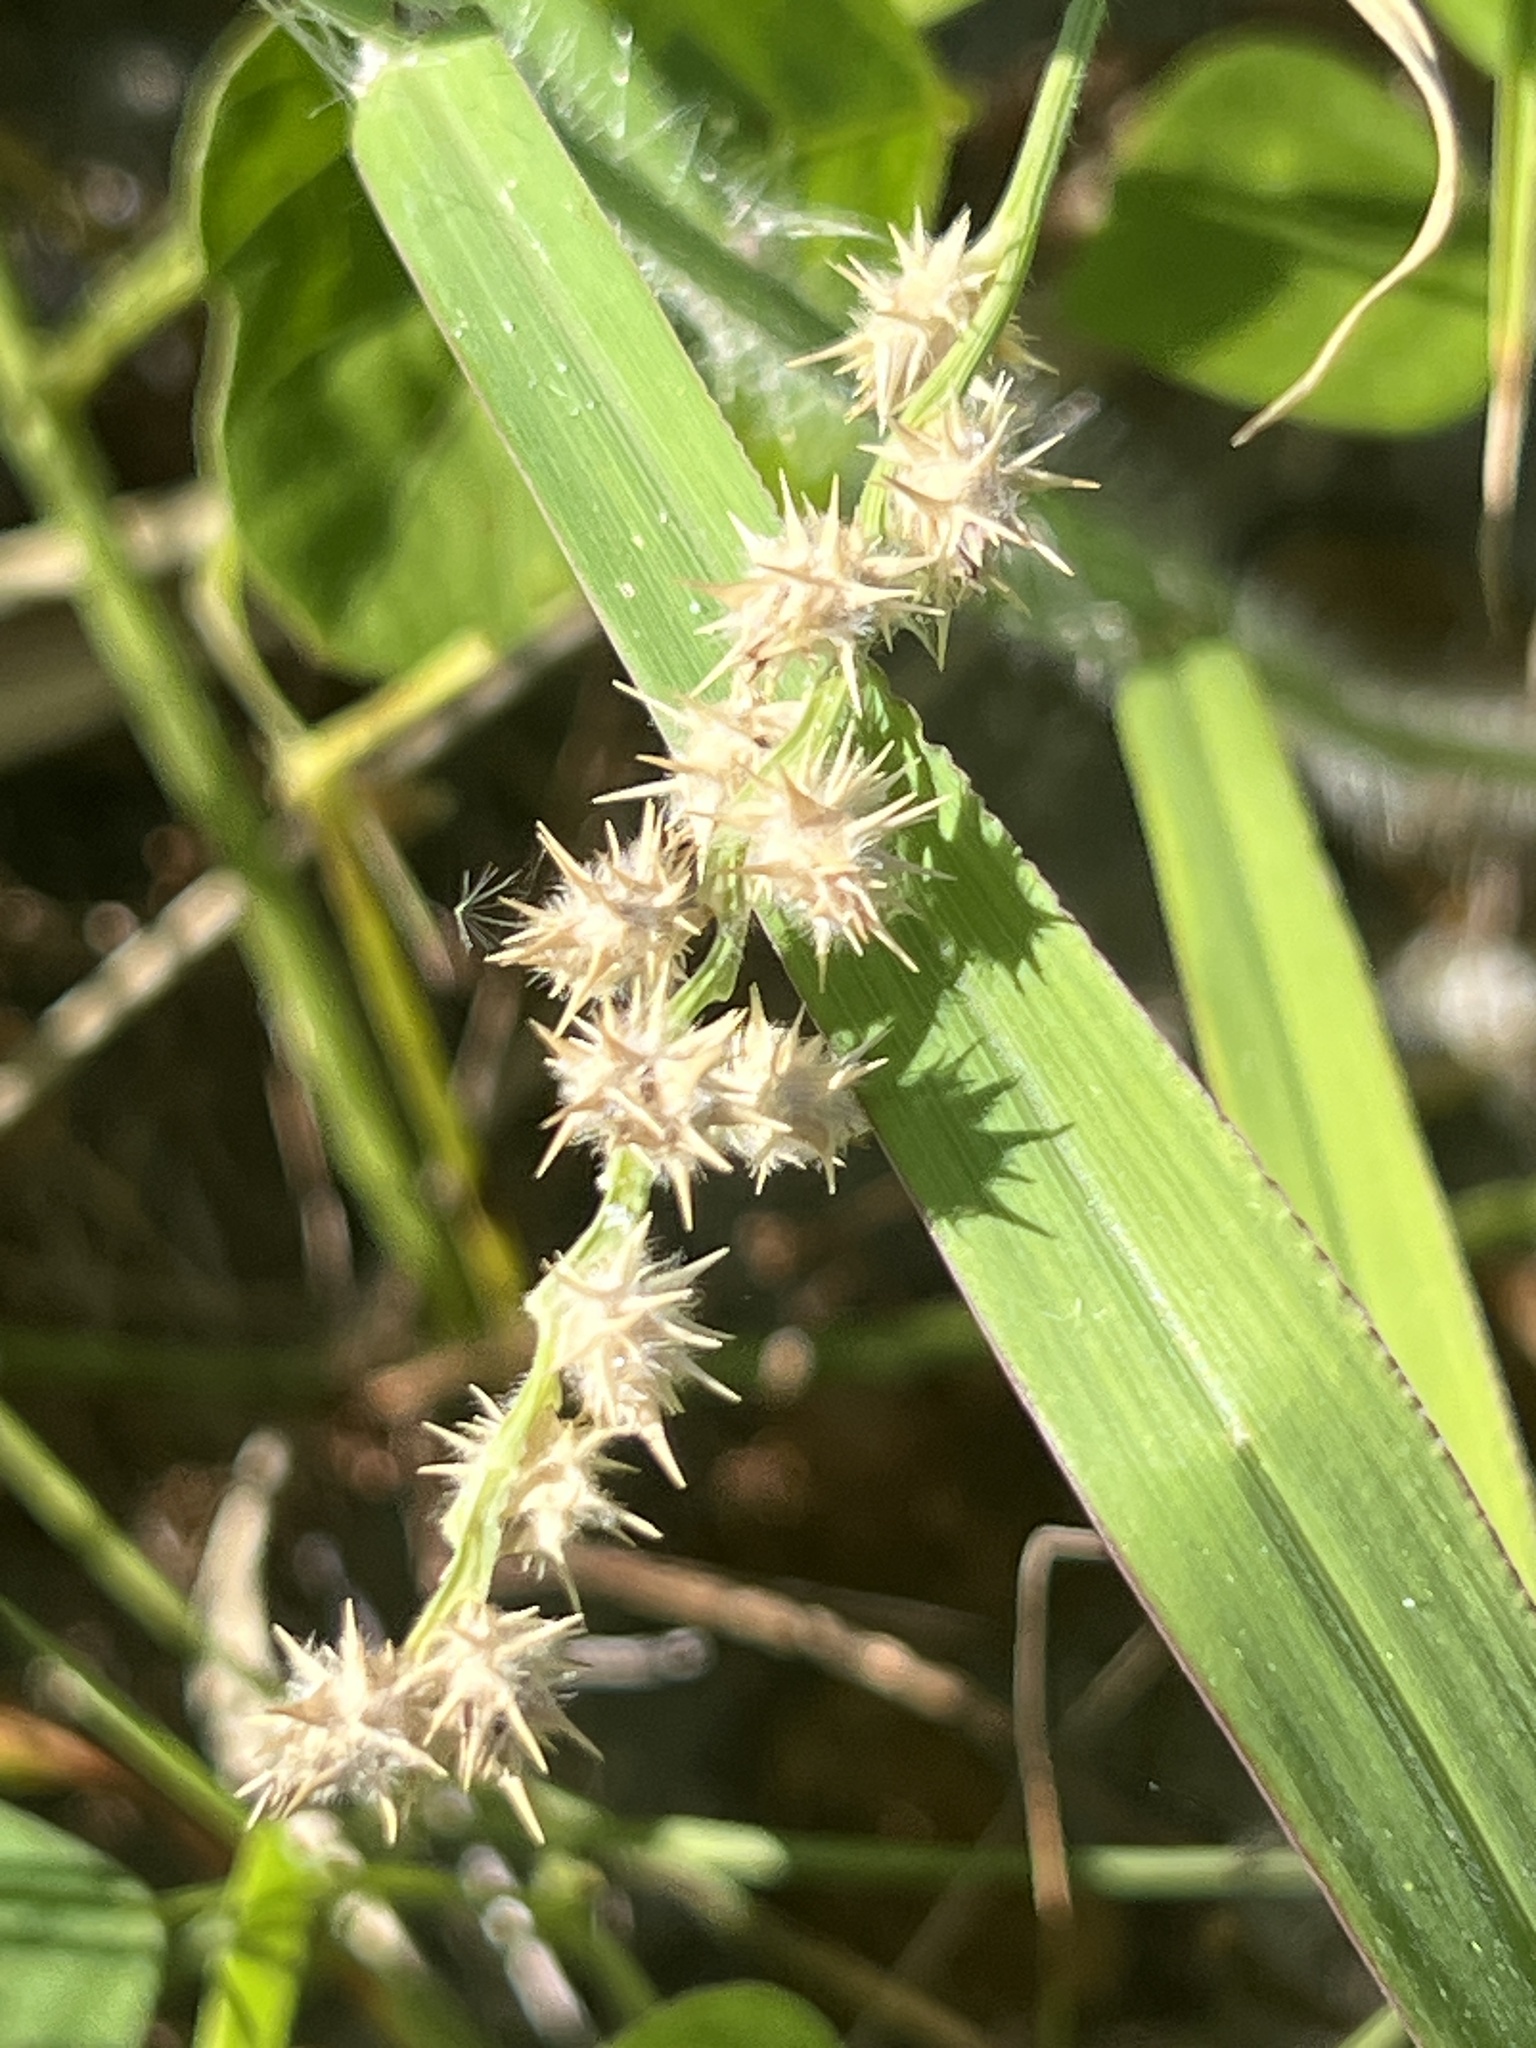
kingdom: Plantae
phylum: Tracheophyta
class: Liliopsida
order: Poales
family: Poaceae
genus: Cenchrus
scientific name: Cenchrus tribuloides
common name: Dune sandbur
